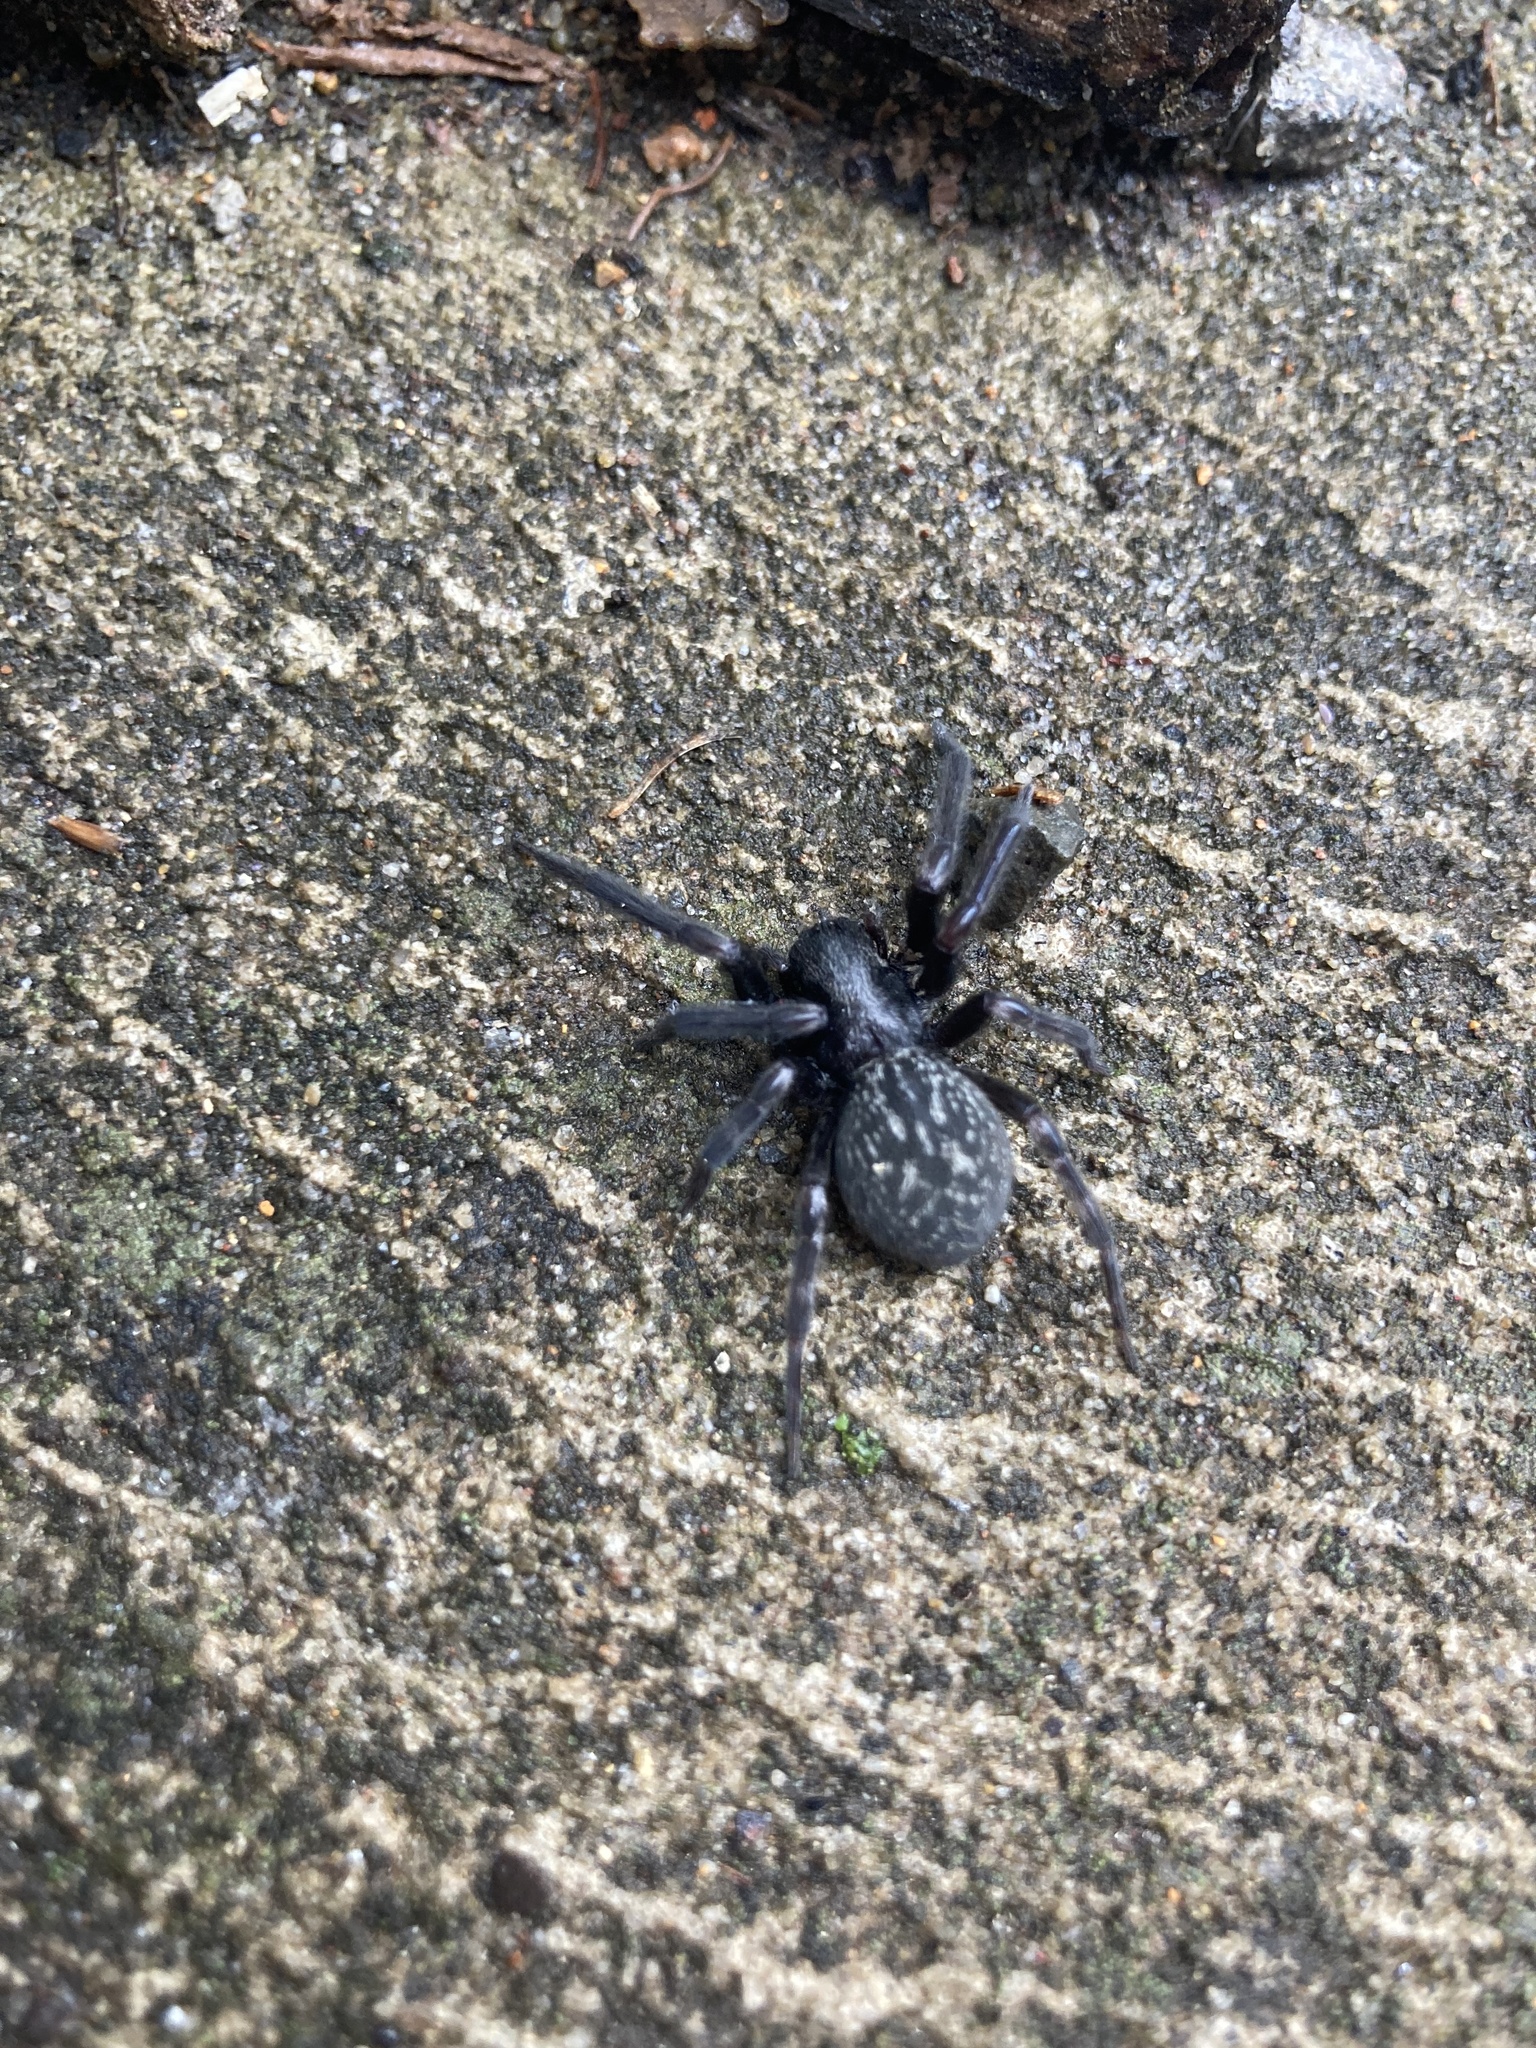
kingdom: Animalia
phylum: Arthropoda
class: Arachnida
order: Araneae
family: Desidae
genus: Badumna
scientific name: Badumna insignis
